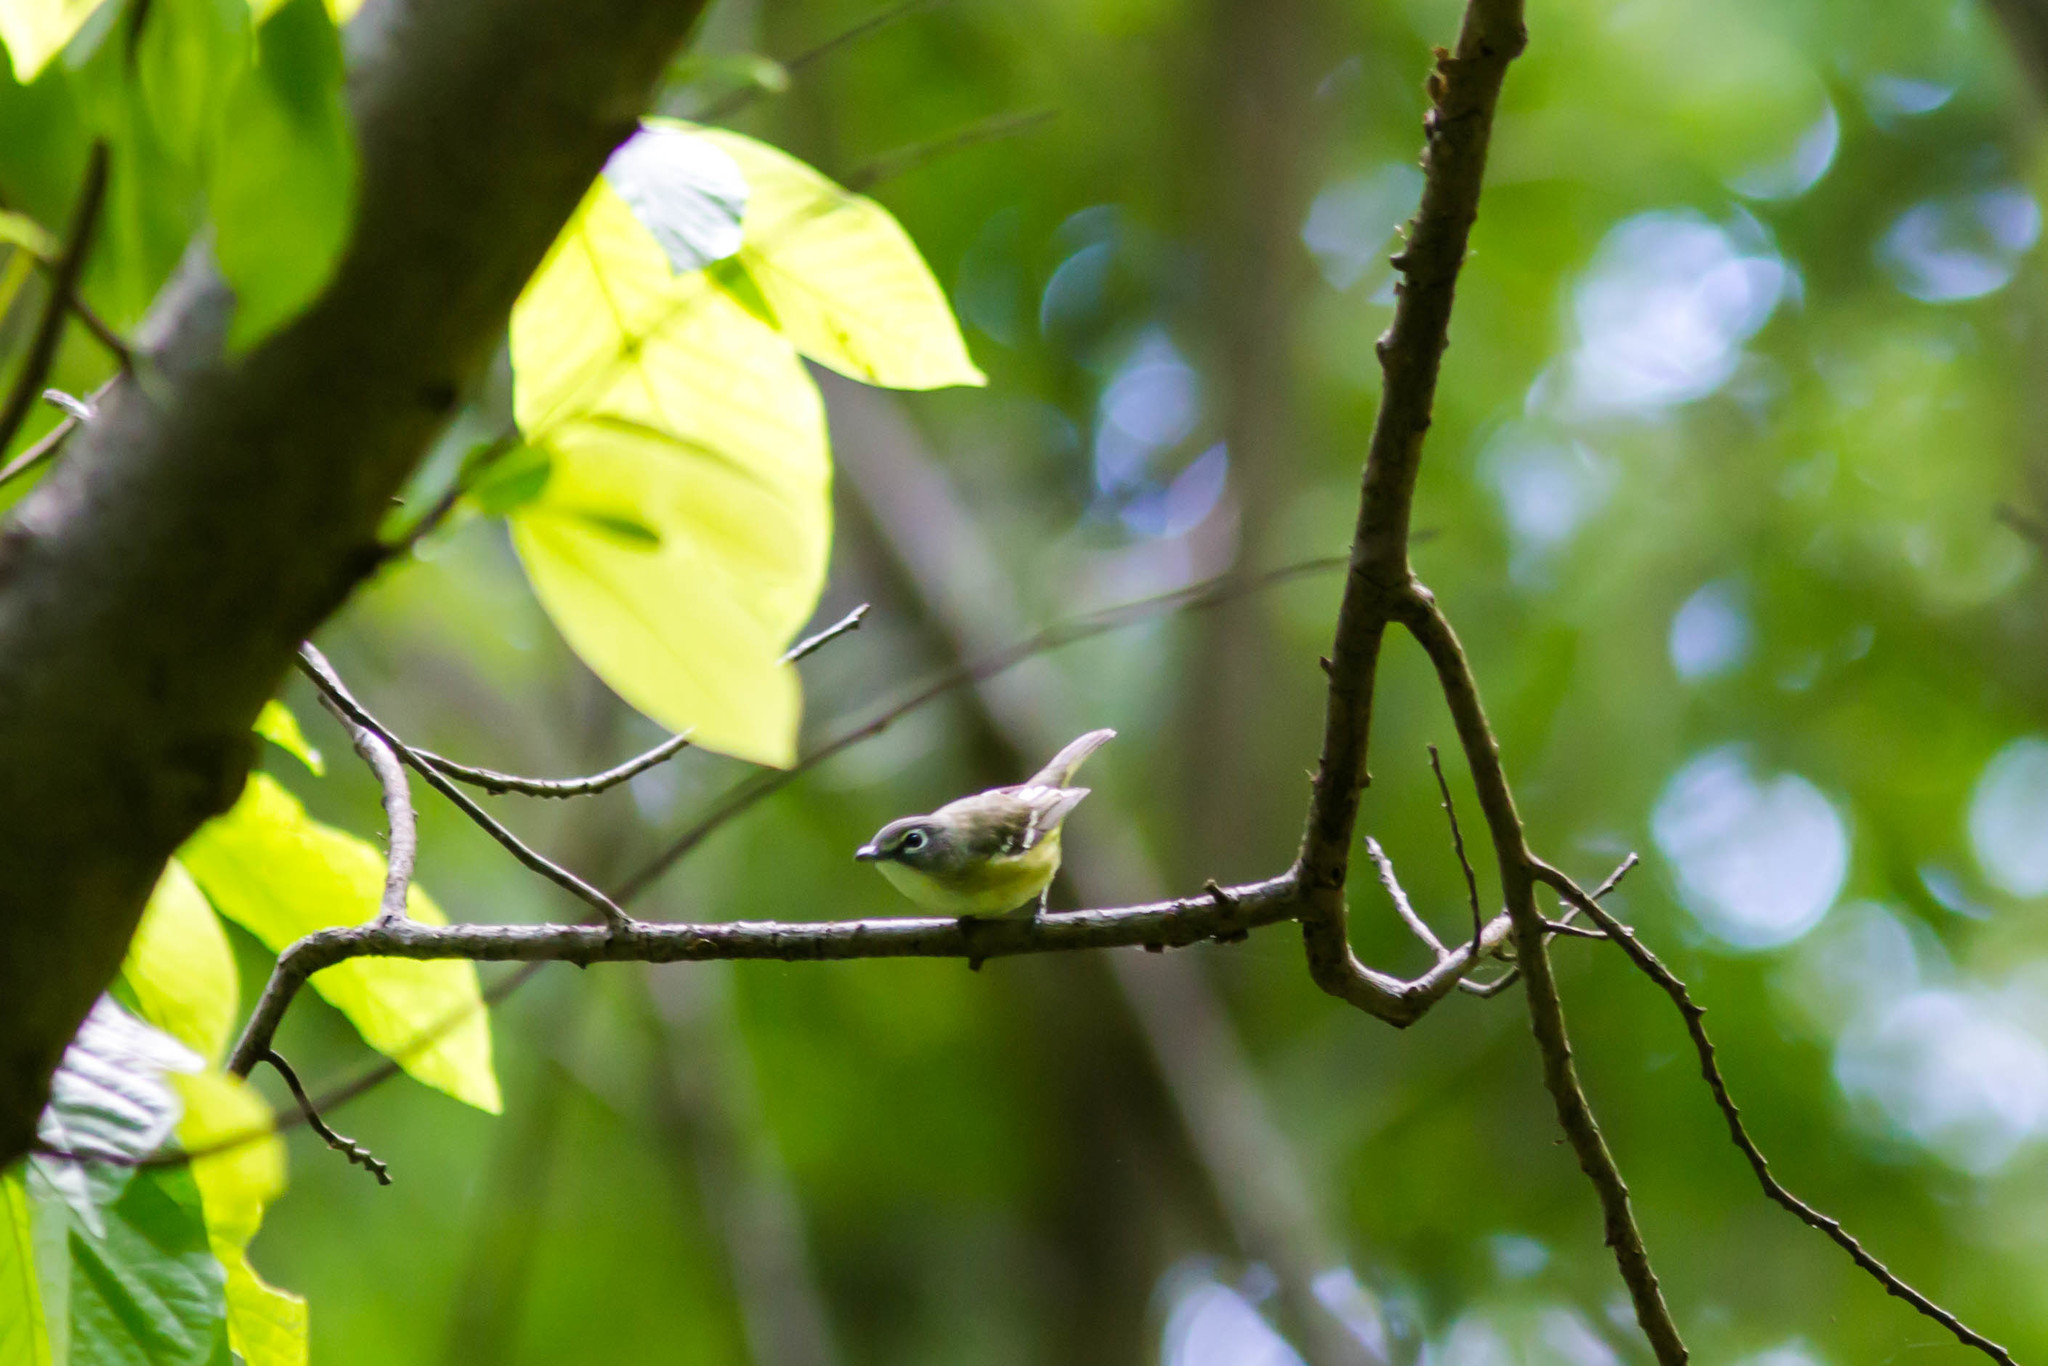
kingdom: Animalia
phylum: Chordata
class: Aves
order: Passeriformes
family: Vireonidae
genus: Vireo
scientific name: Vireo solitarius
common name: Blue-headed vireo
